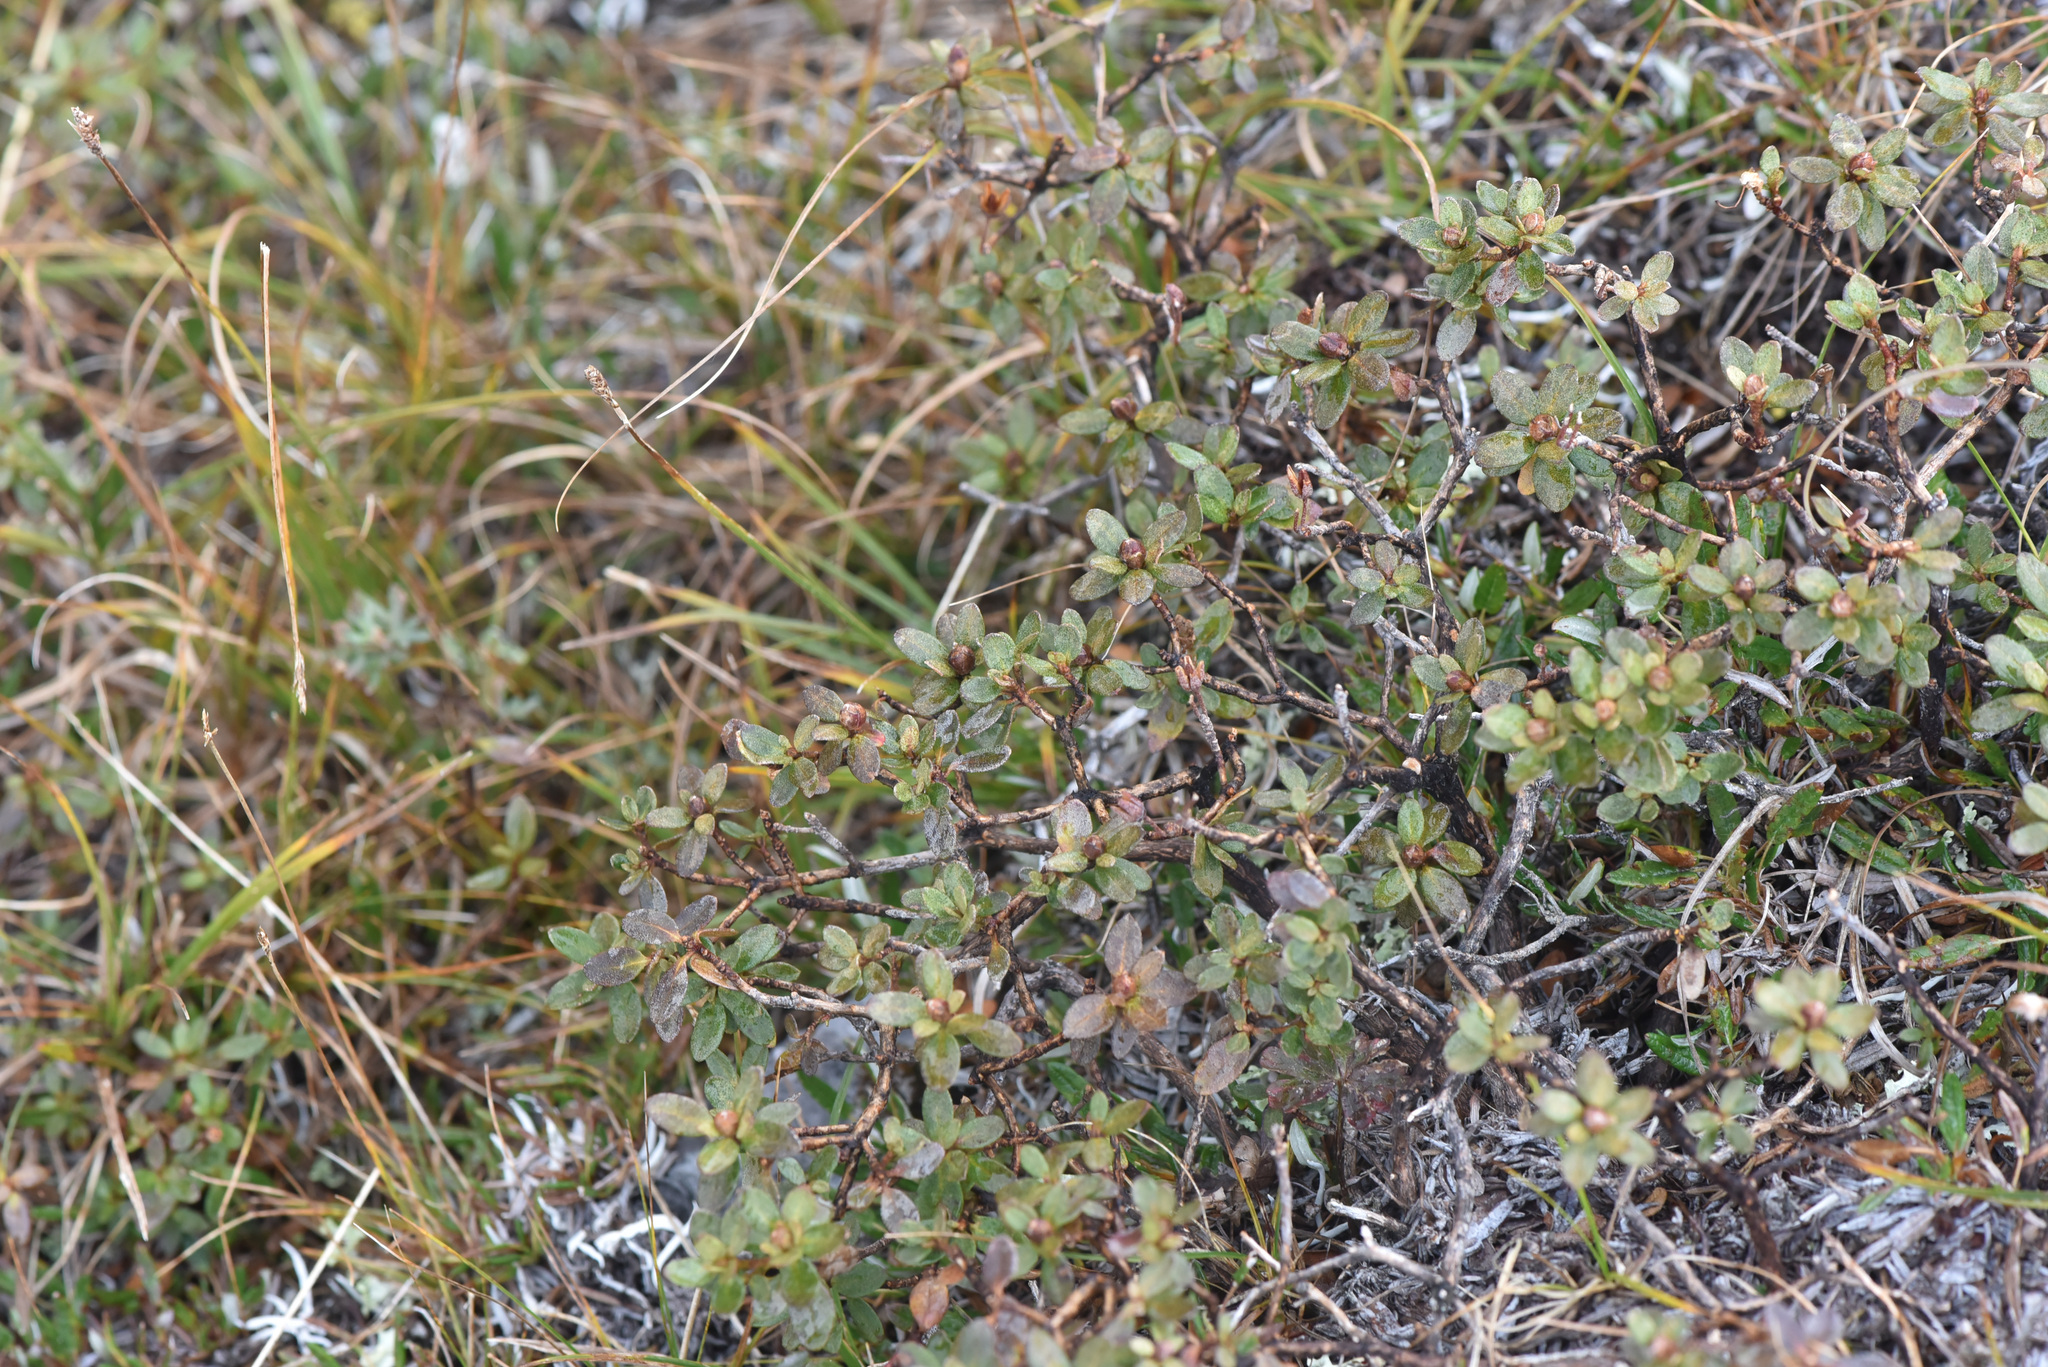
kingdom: Plantae
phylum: Tracheophyta
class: Magnoliopsida
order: Ericales
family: Ericaceae
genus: Rhododendron
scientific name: Rhododendron lapponicum
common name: Lapland rhododendron
